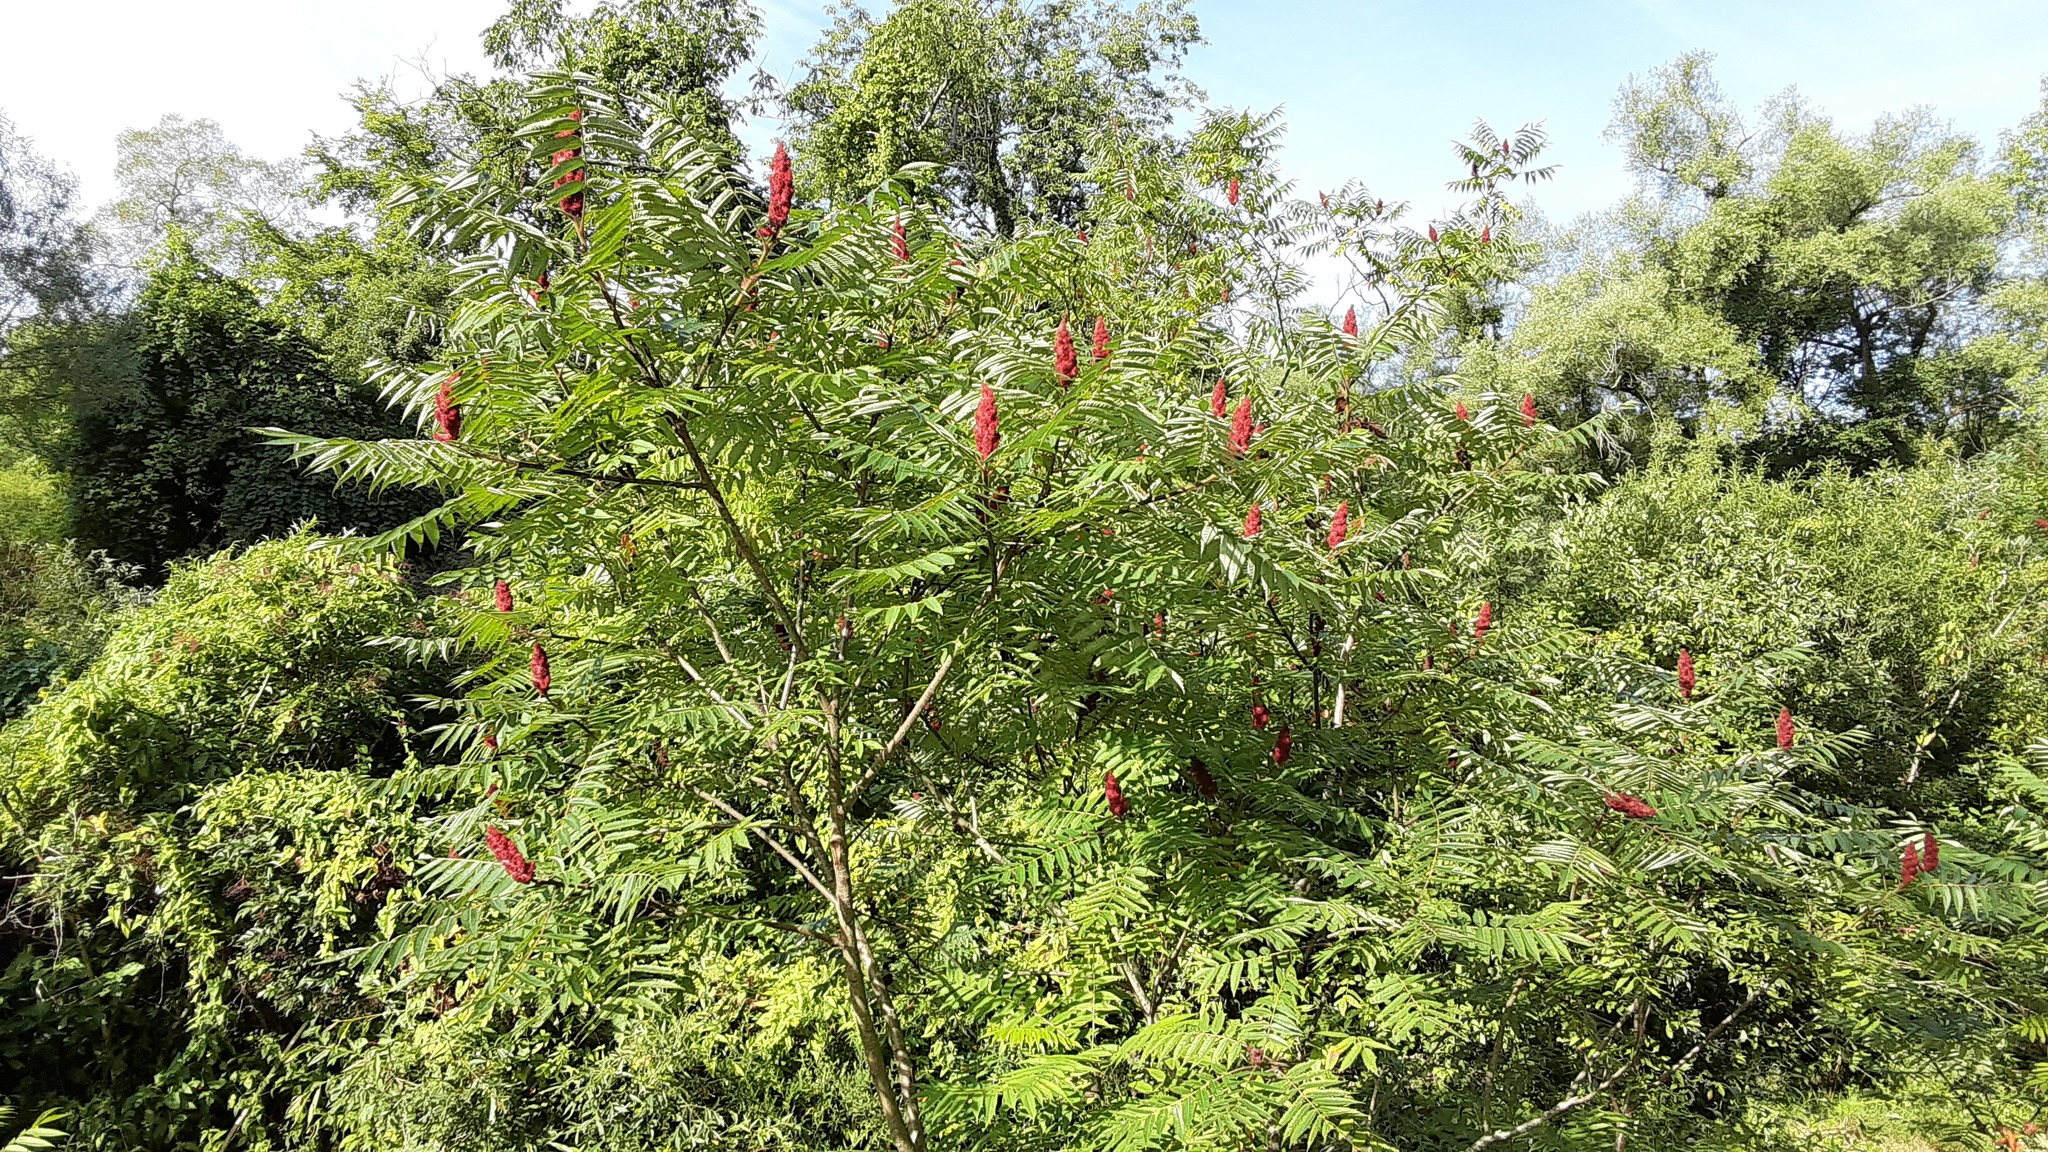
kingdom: Plantae
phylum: Tracheophyta
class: Magnoliopsida
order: Sapindales
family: Anacardiaceae
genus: Rhus
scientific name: Rhus typhina
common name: Staghorn sumac
